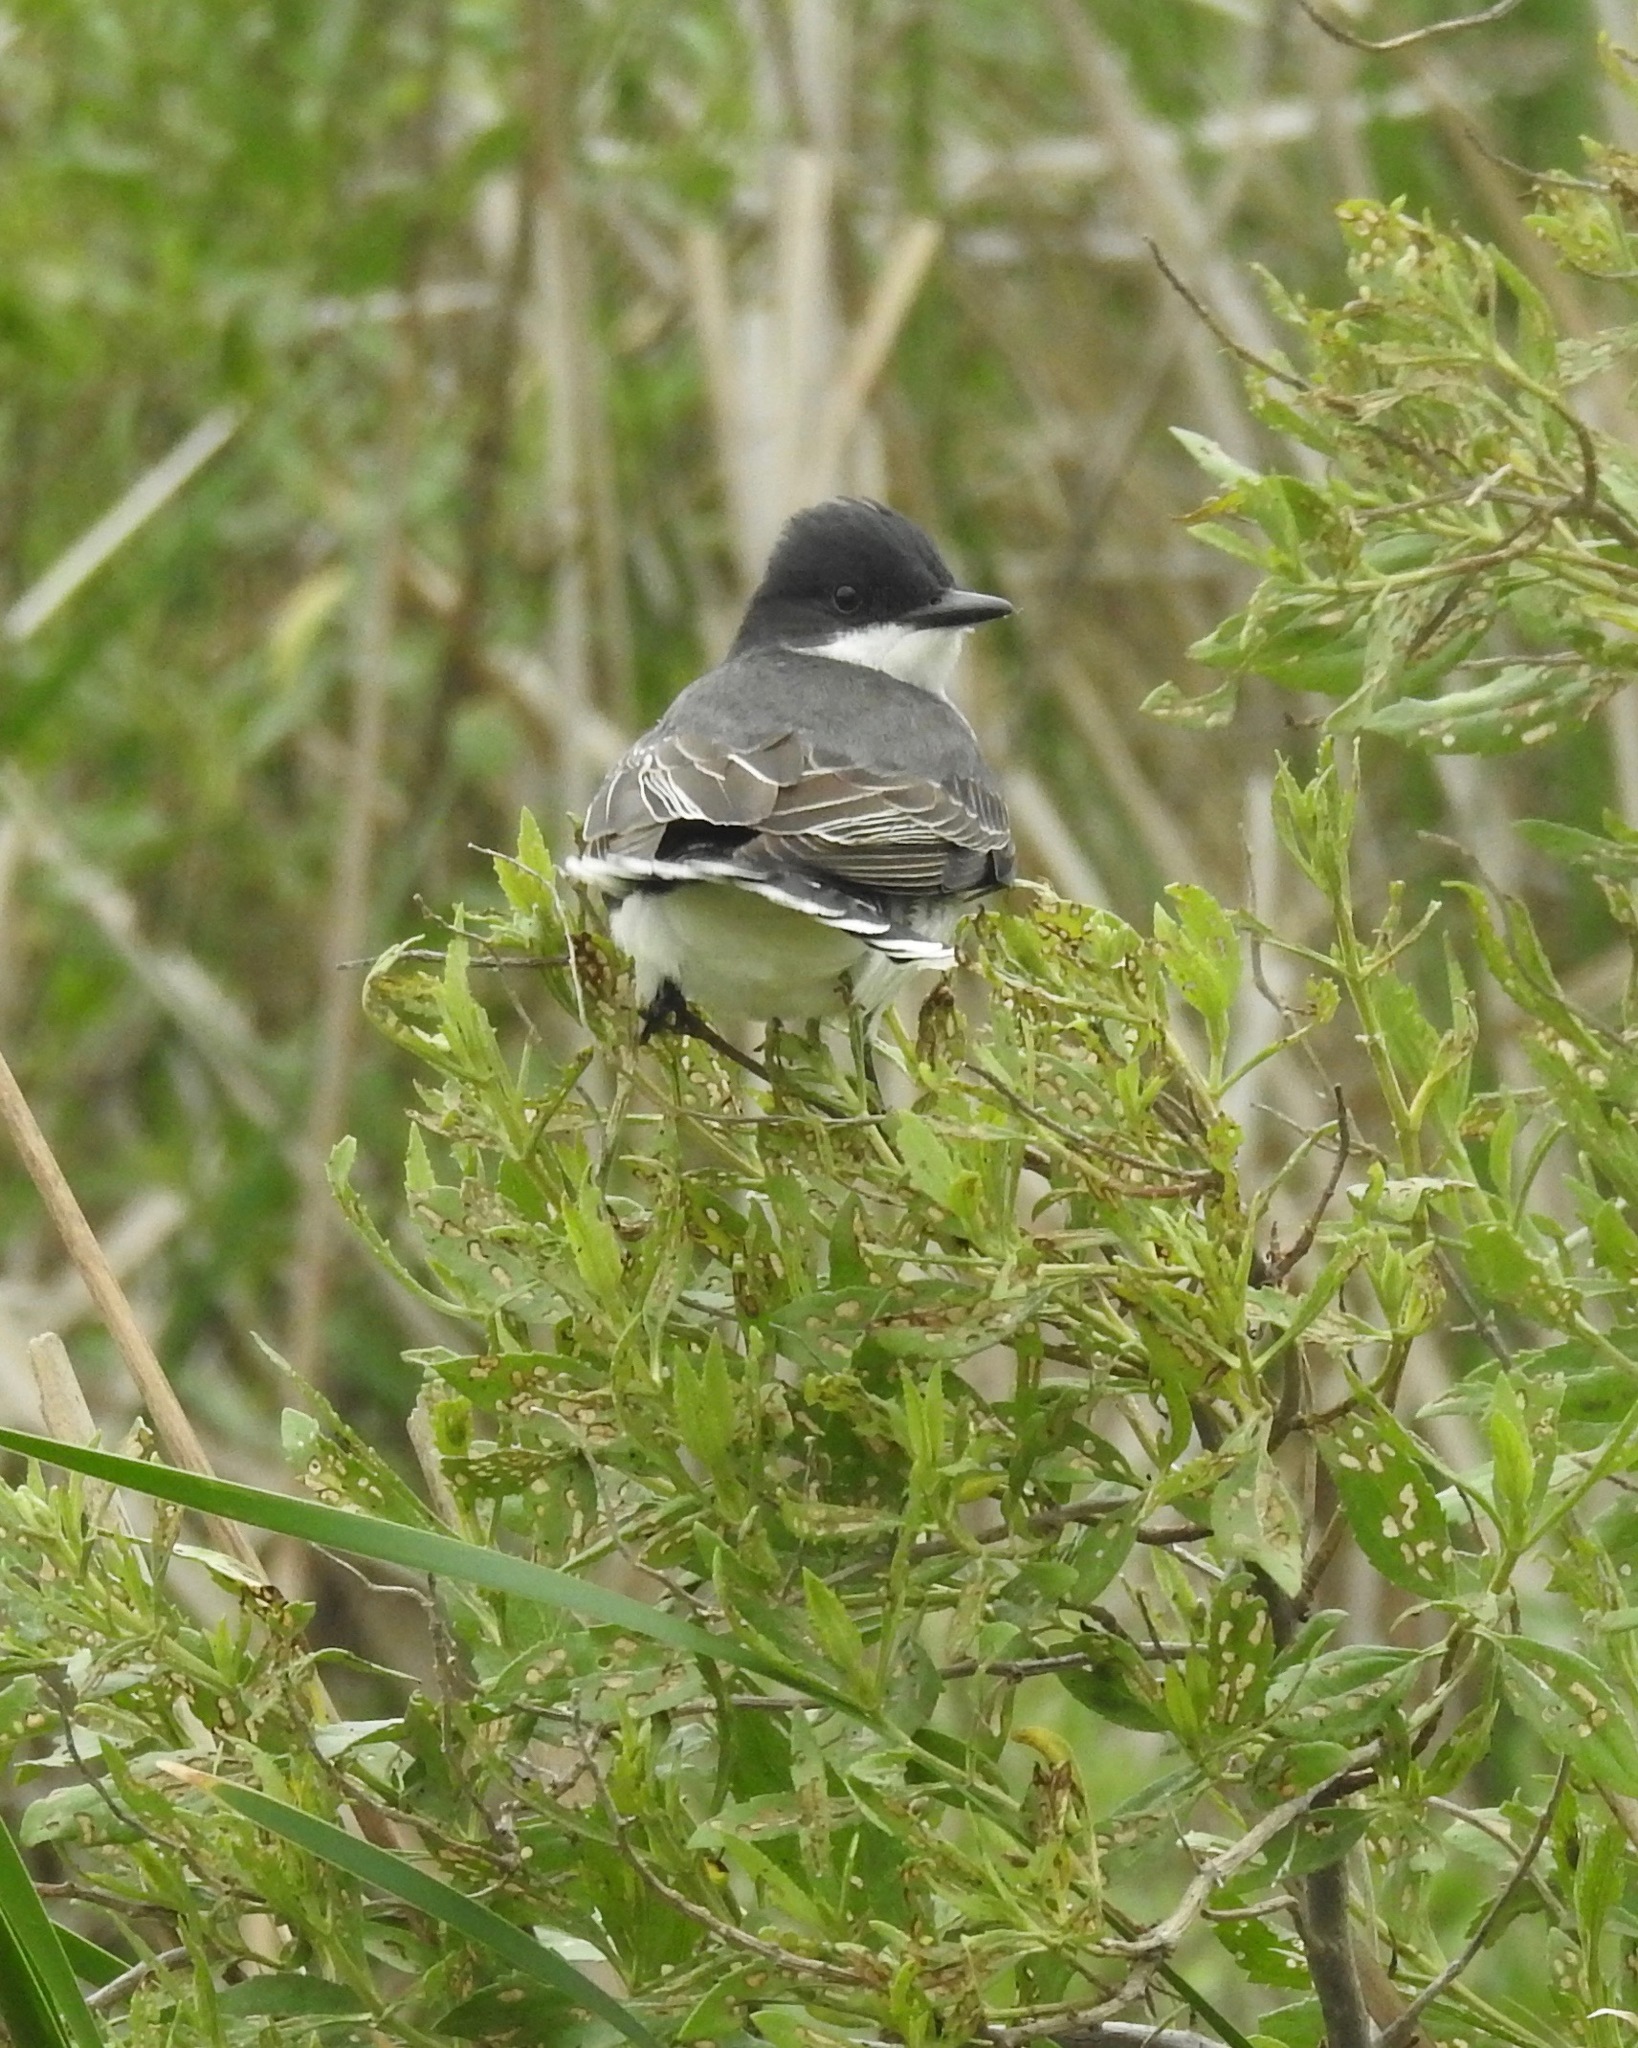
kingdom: Animalia
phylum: Chordata
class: Aves
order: Passeriformes
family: Tyrannidae
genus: Tyrannus
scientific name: Tyrannus tyrannus
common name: Eastern kingbird
